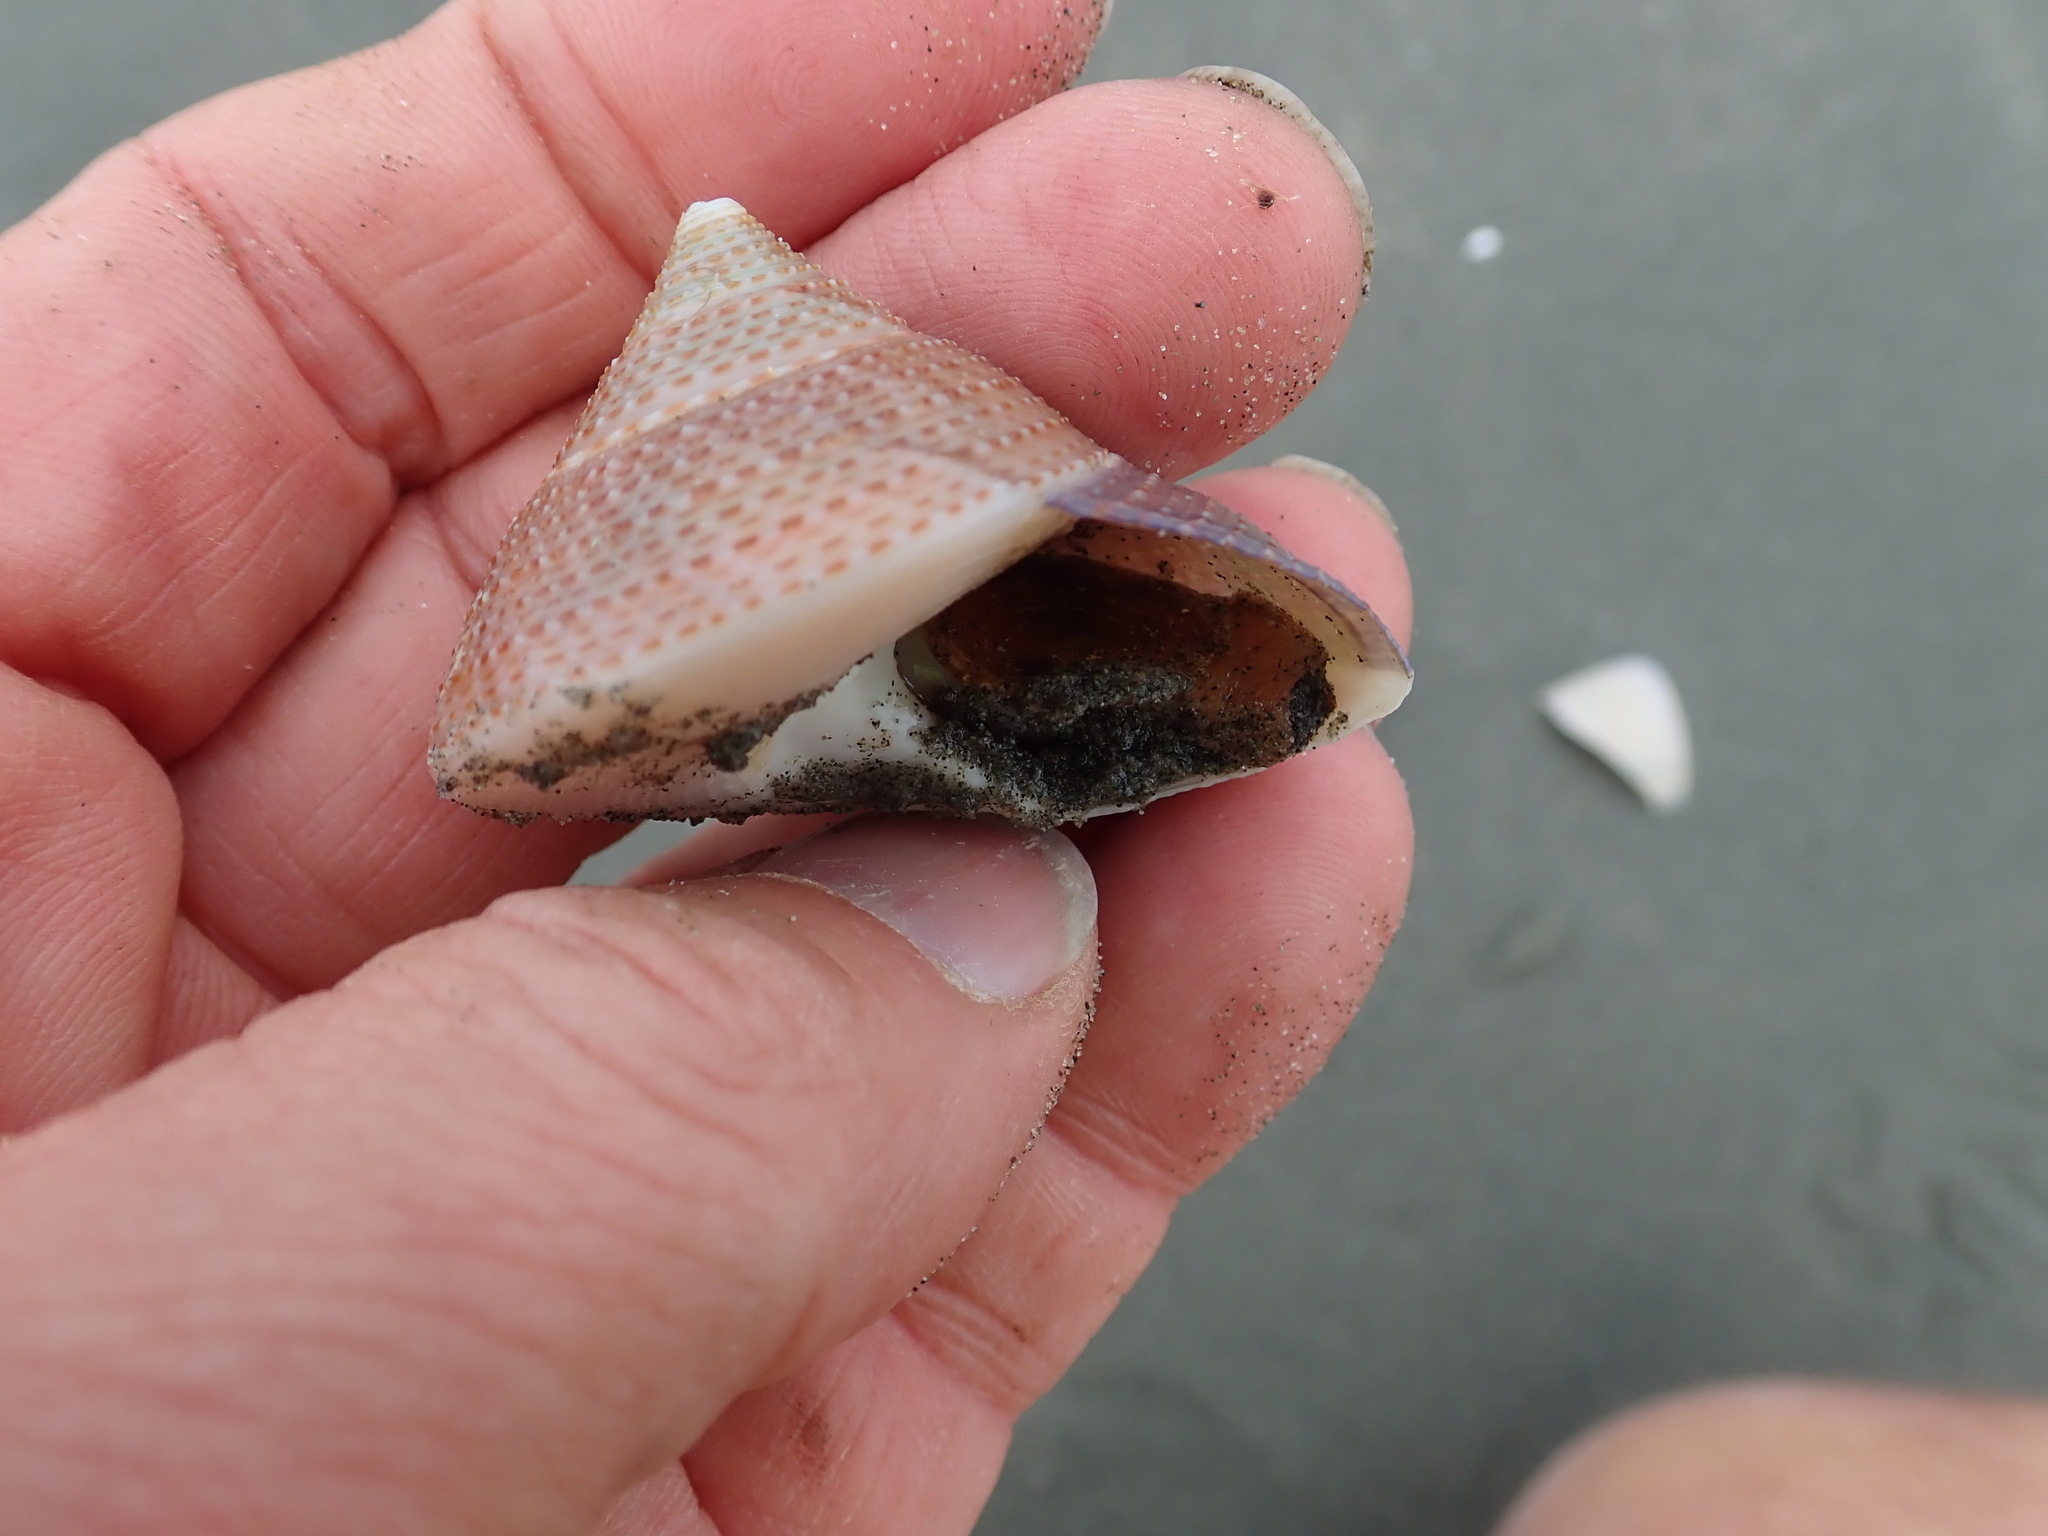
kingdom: Animalia
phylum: Mollusca
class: Gastropoda
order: Trochida
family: Calliostomatidae
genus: Maurea
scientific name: Maurea selecta
